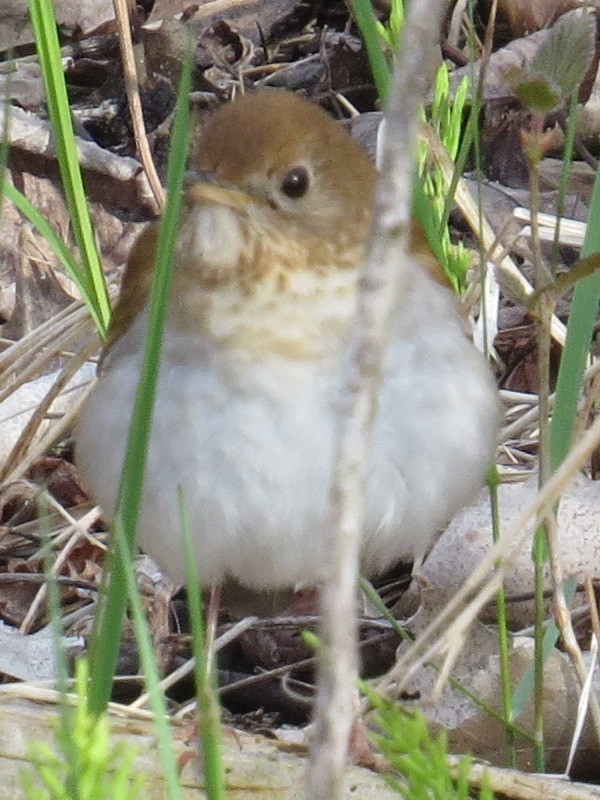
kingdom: Animalia
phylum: Chordata
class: Aves
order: Passeriformes
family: Turdidae
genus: Catharus
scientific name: Catharus fuscescens
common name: Veery
